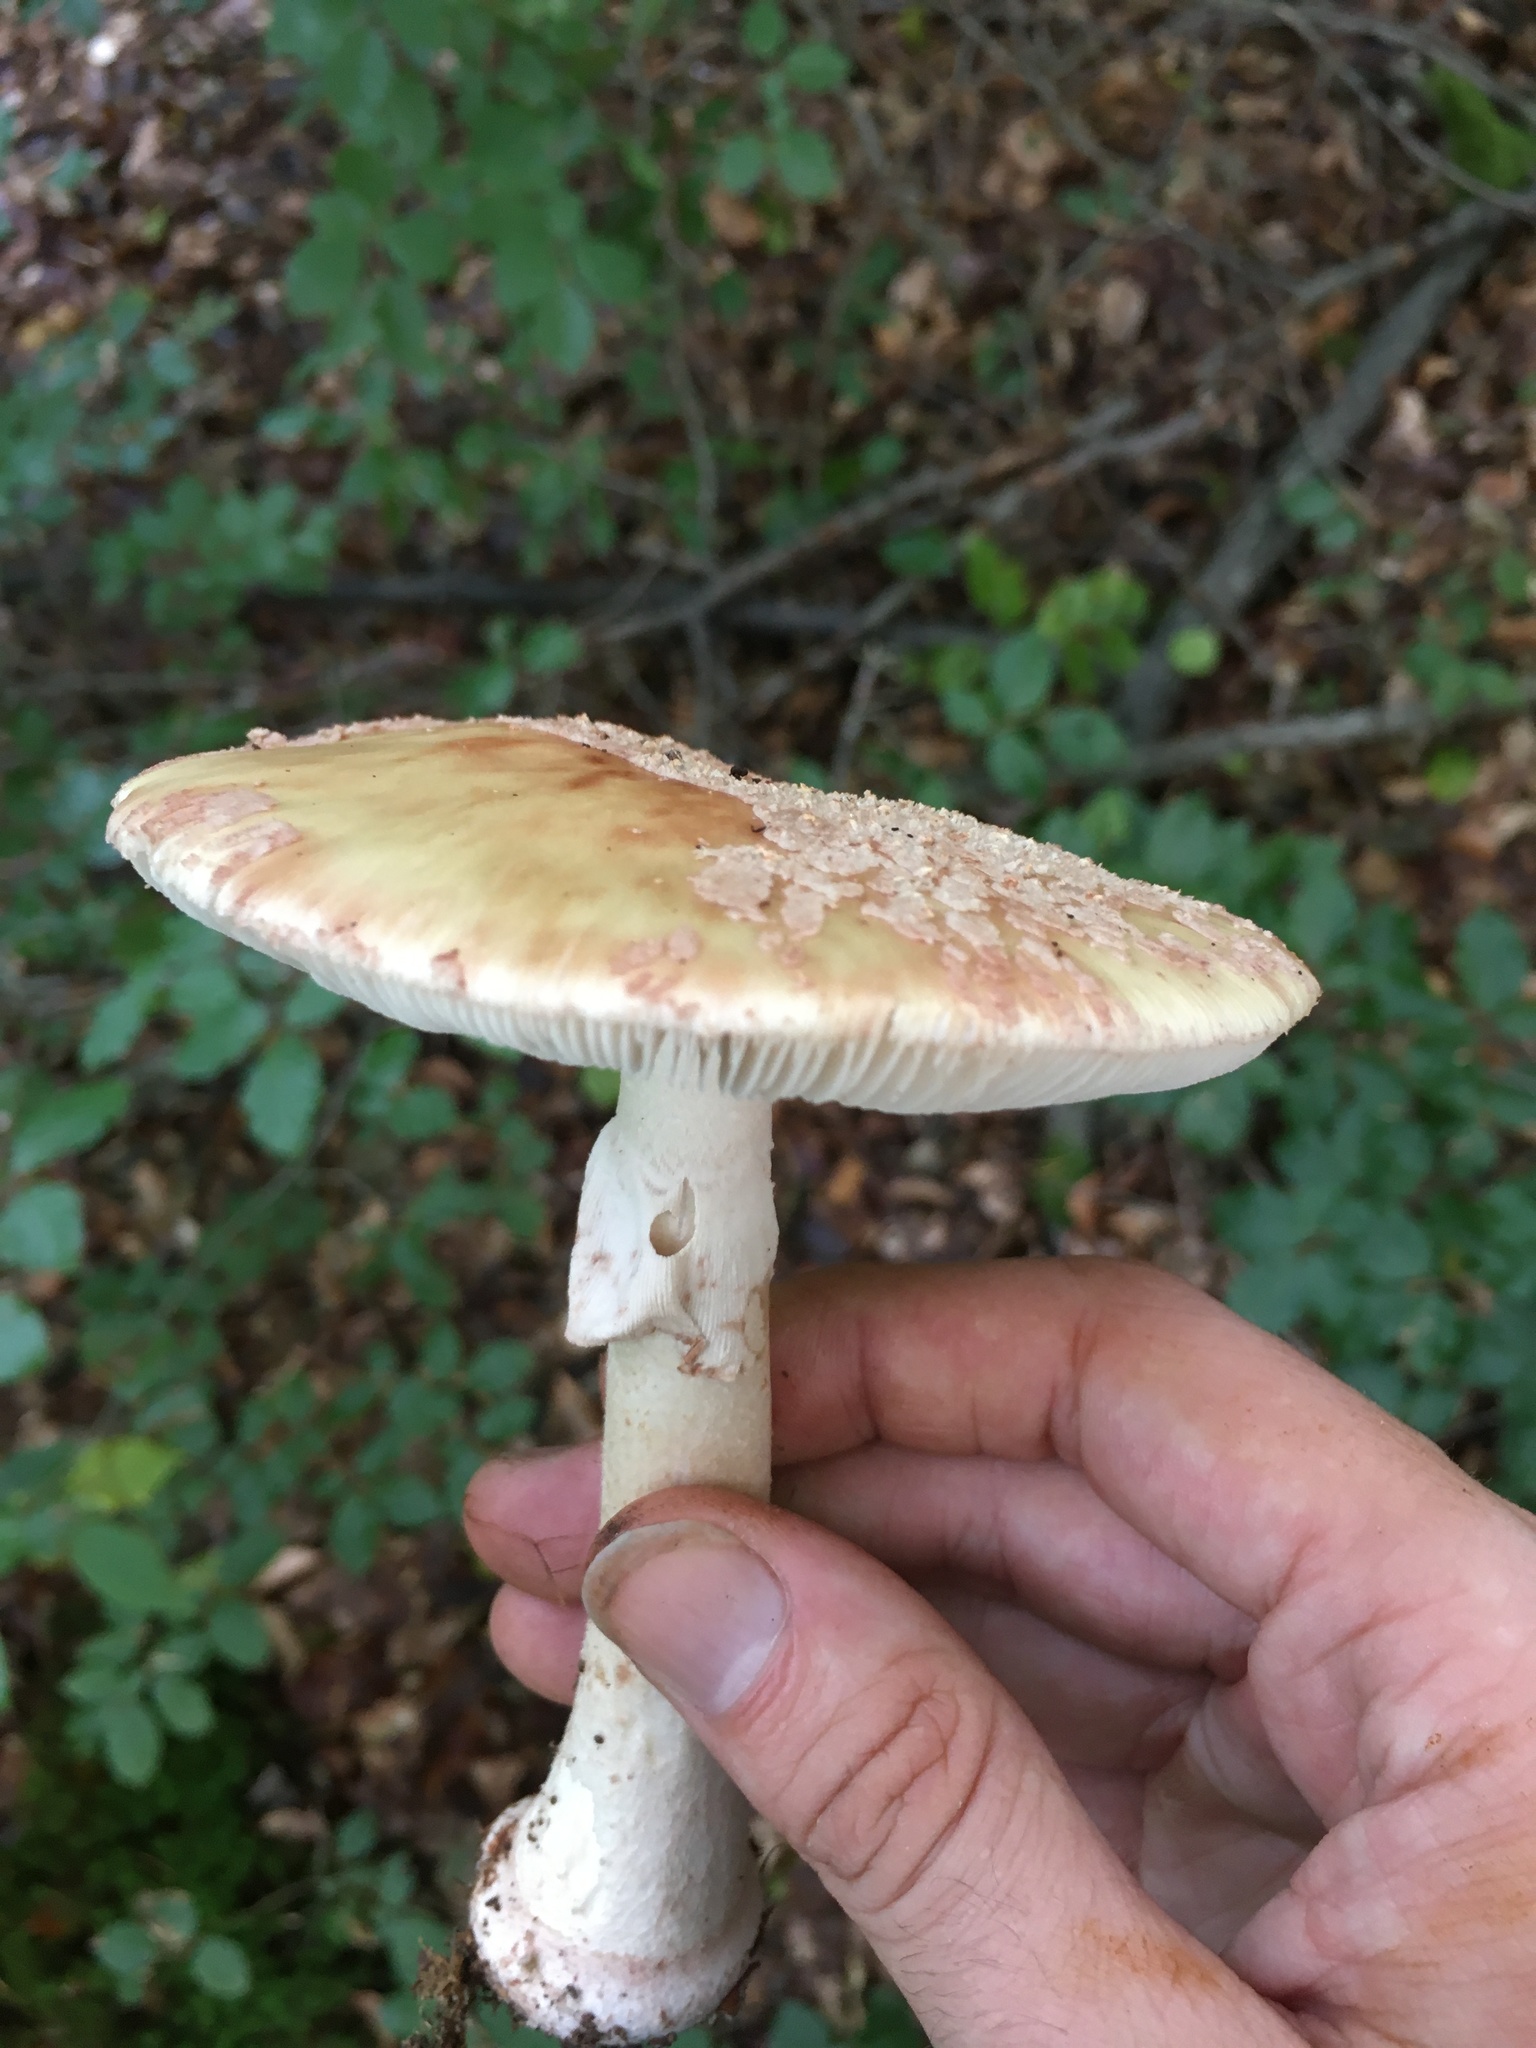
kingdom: Fungi
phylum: Basidiomycota
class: Agaricomycetes
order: Agaricales
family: Amanitaceae
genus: Amanita
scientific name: Amanita rubescens
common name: Blusher
